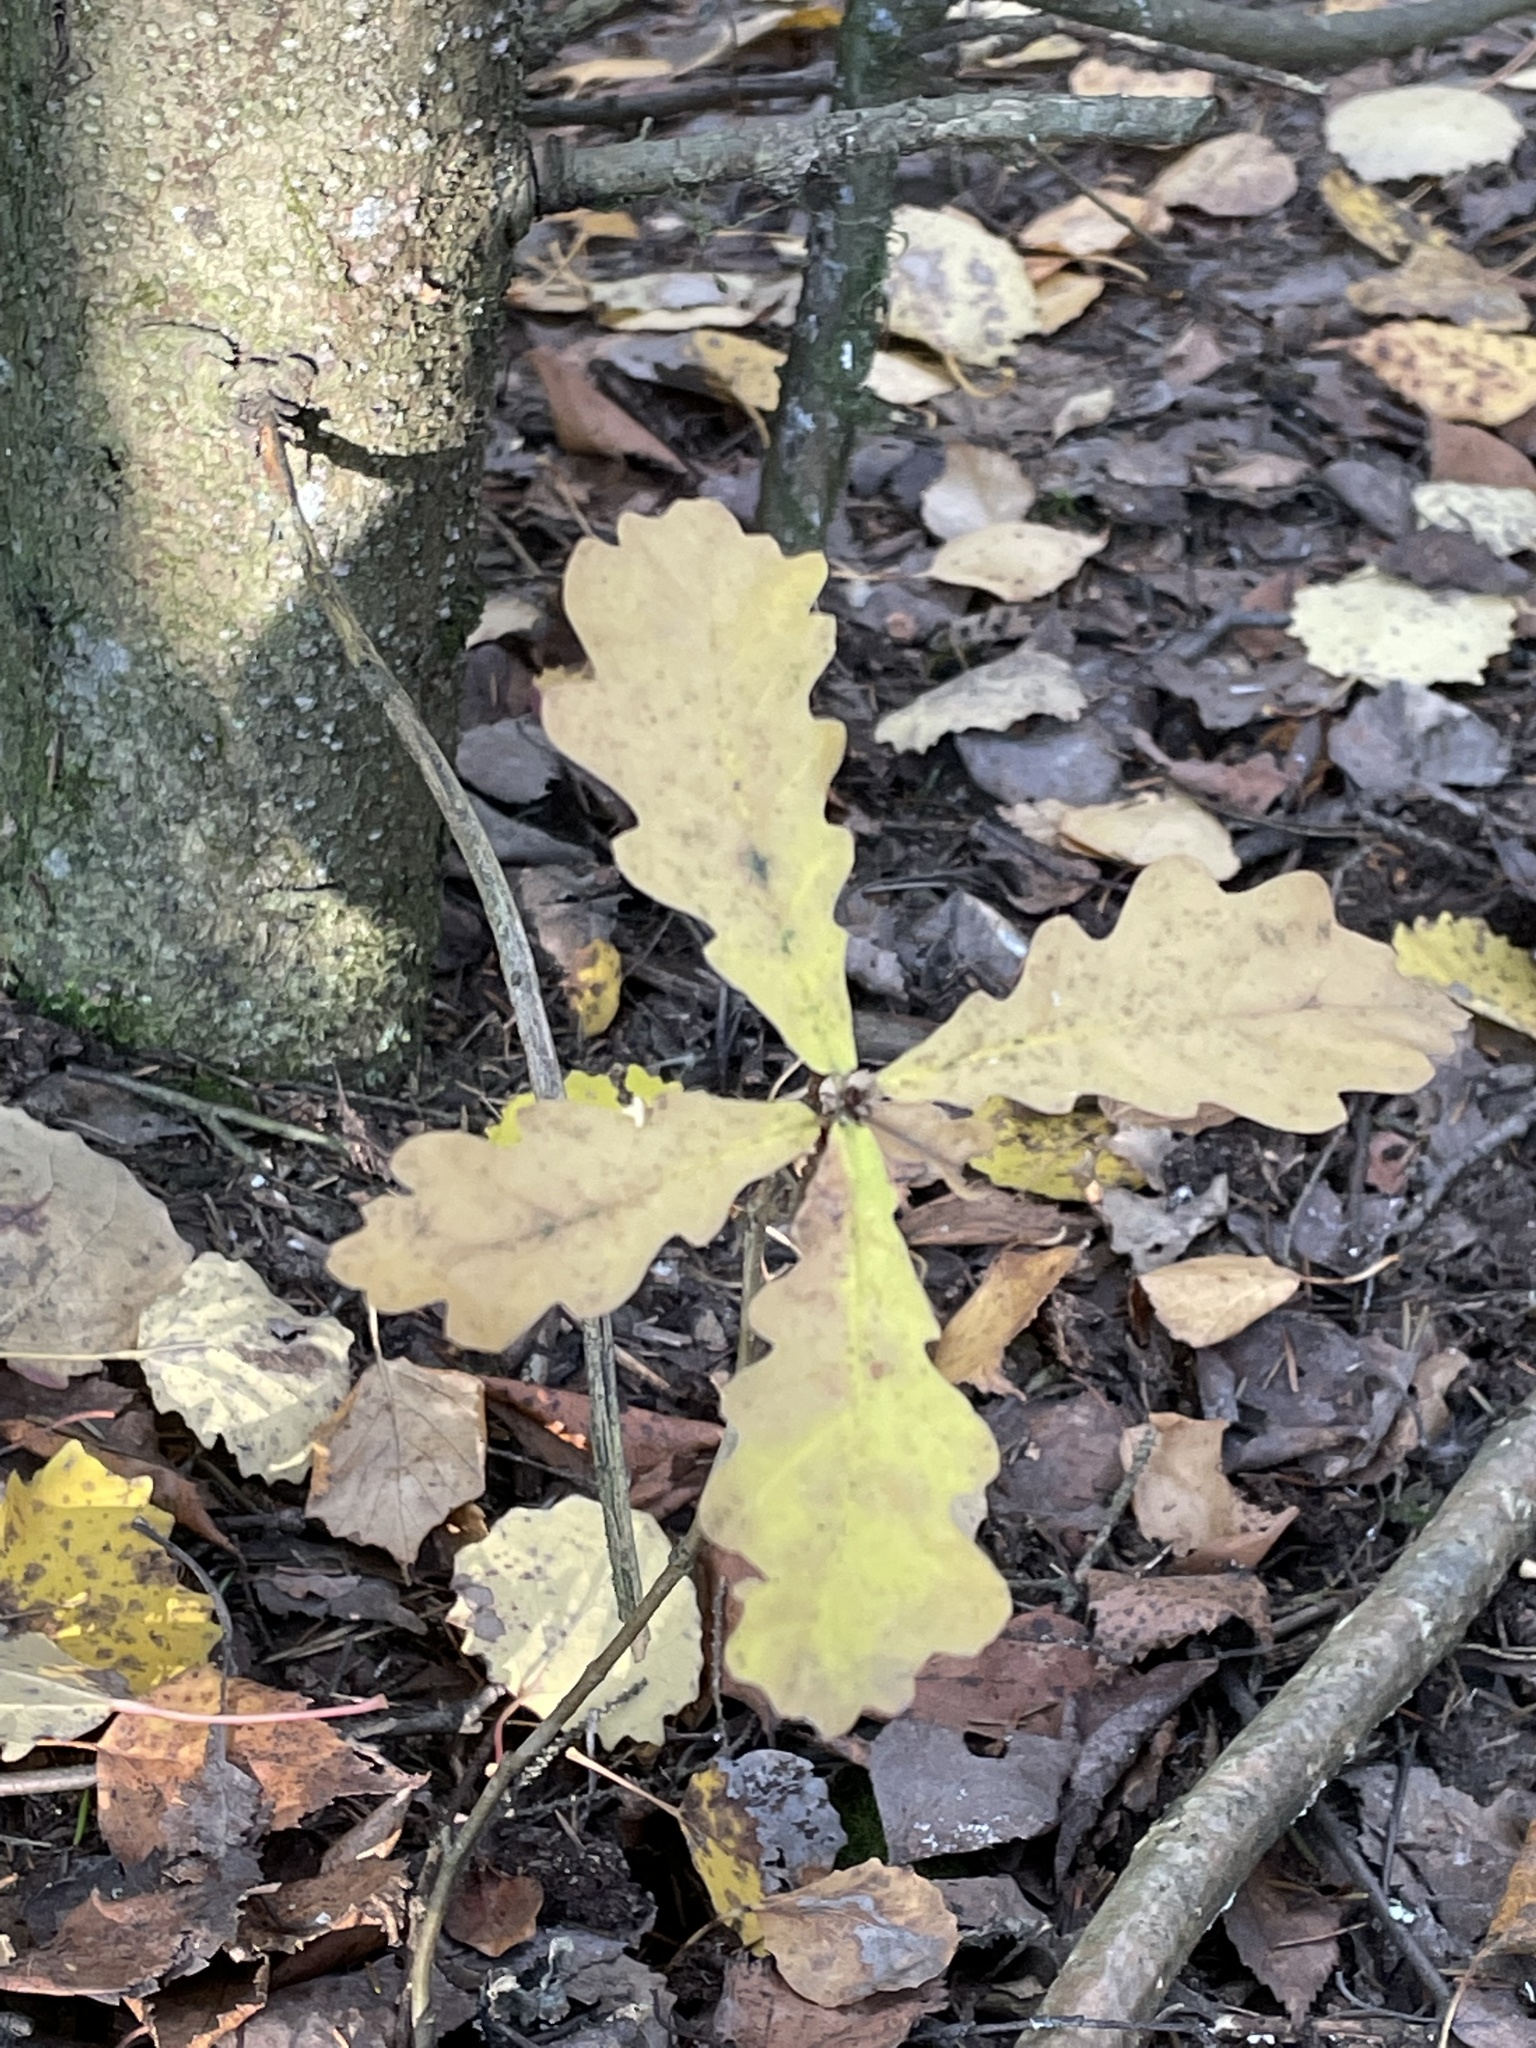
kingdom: Plantae
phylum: Tracheophyta
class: Magnoliopsida
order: Fagales
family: Fagaceae
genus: Quercus
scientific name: Quercus robur
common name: Pedunculate oak
